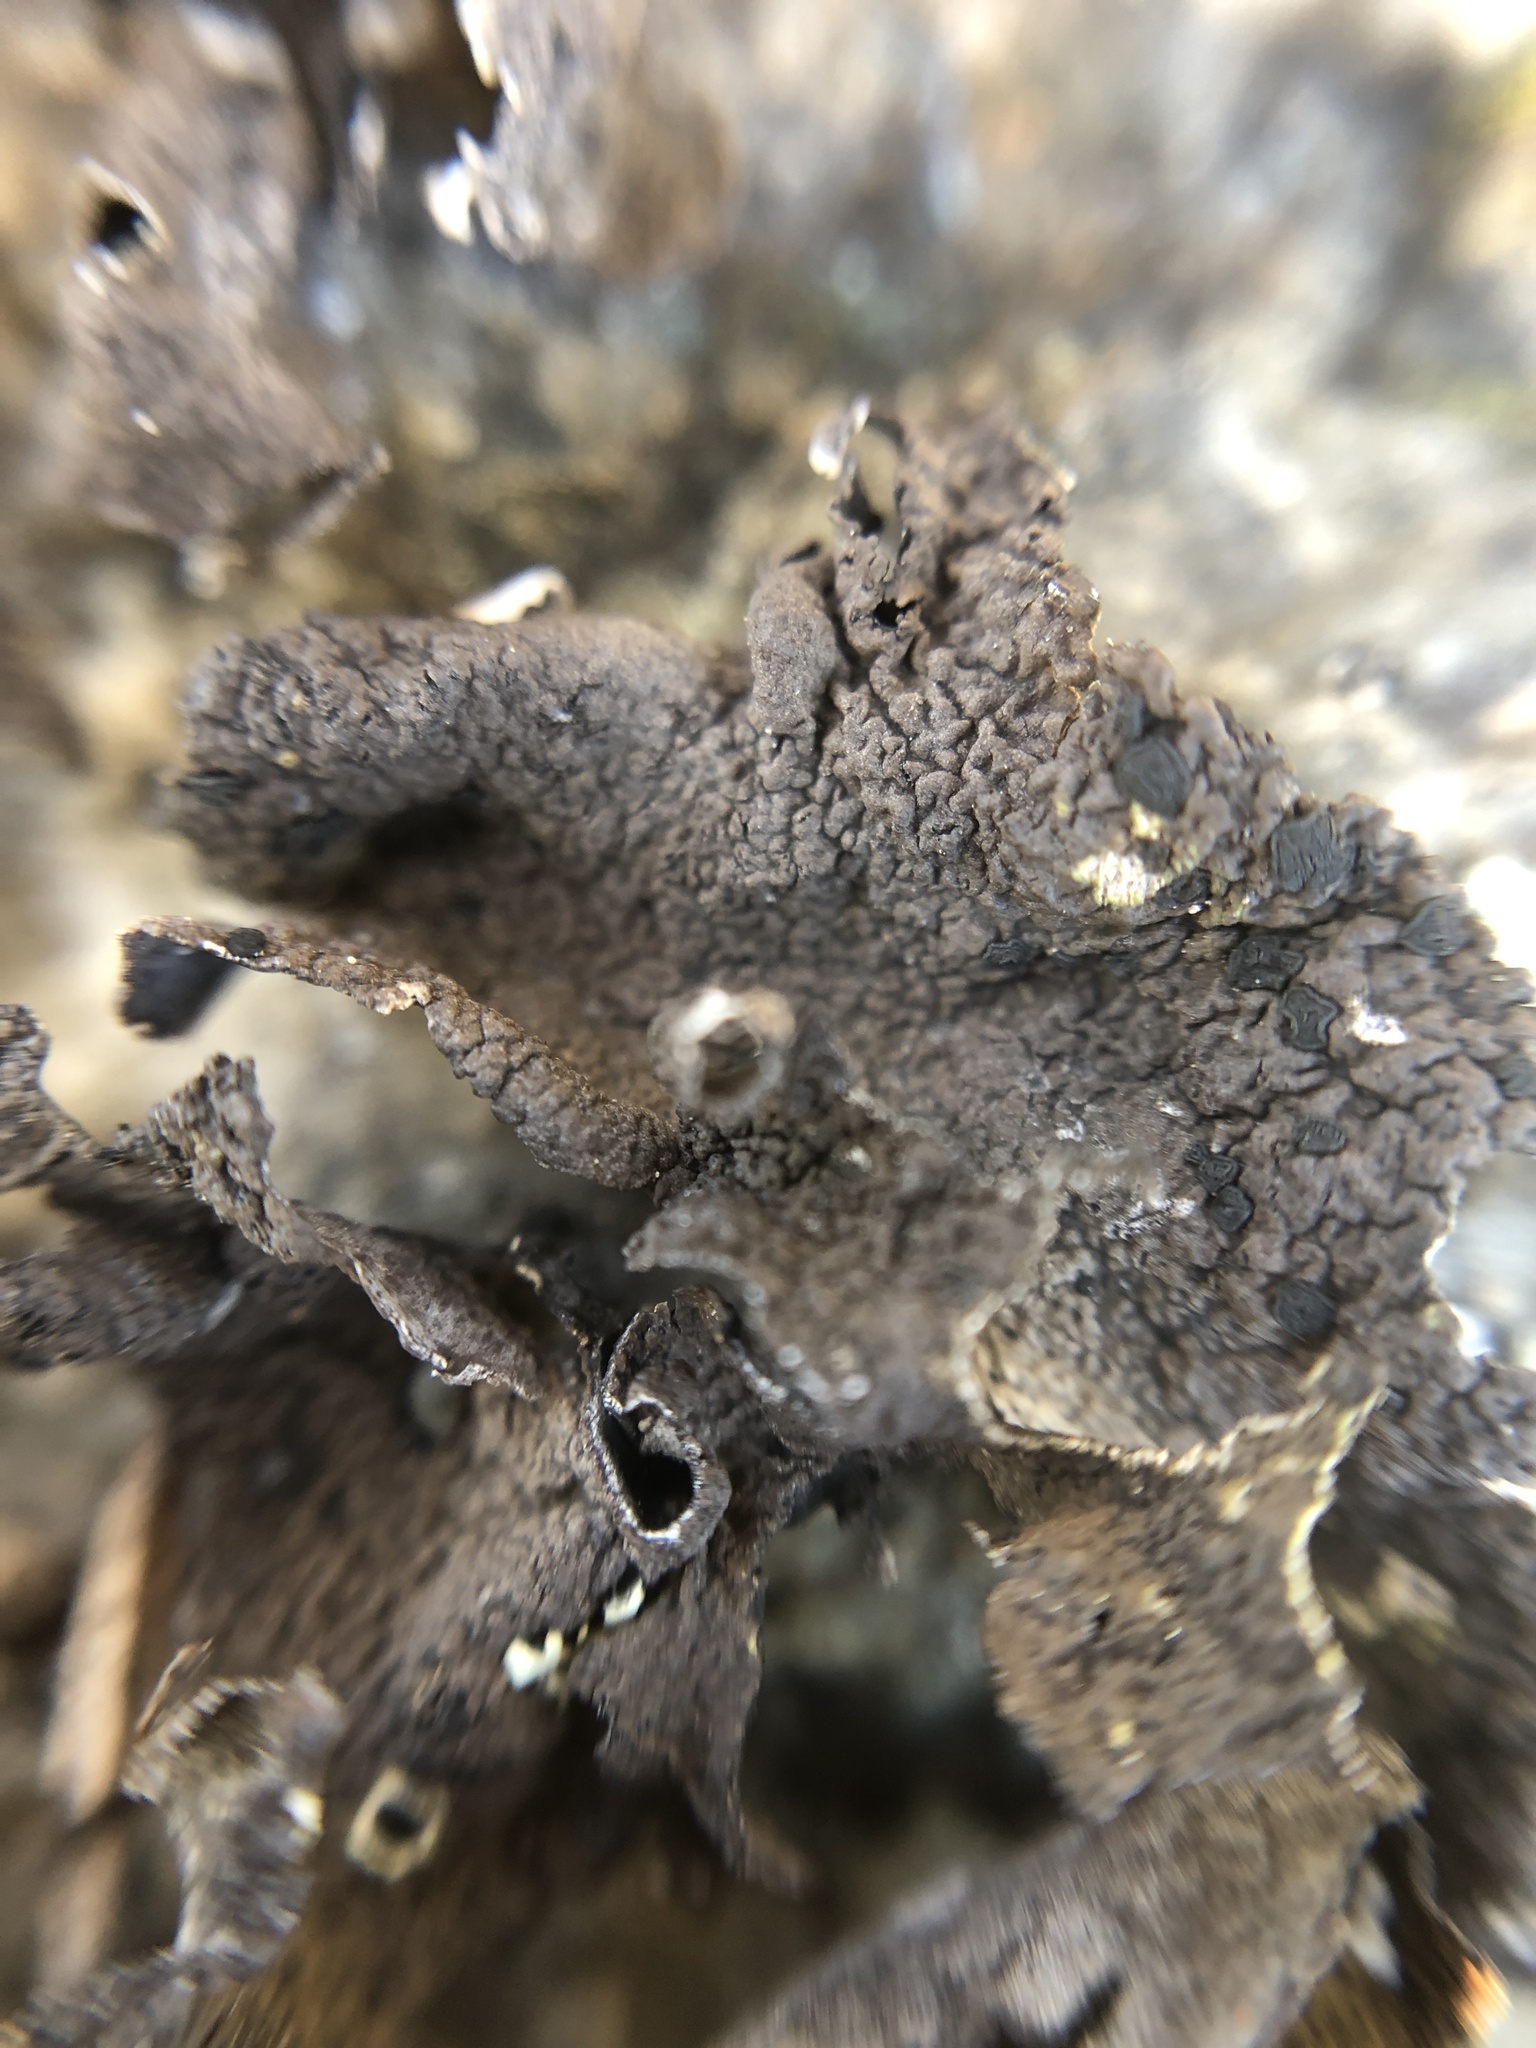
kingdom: Fungi
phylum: Ascomycota
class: Lecanoromycetes
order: Umbilicariales
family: Umbilicariaceae
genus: Umbilicaria
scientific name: Umbilicaria hyperborea
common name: Blistered rock tripe
